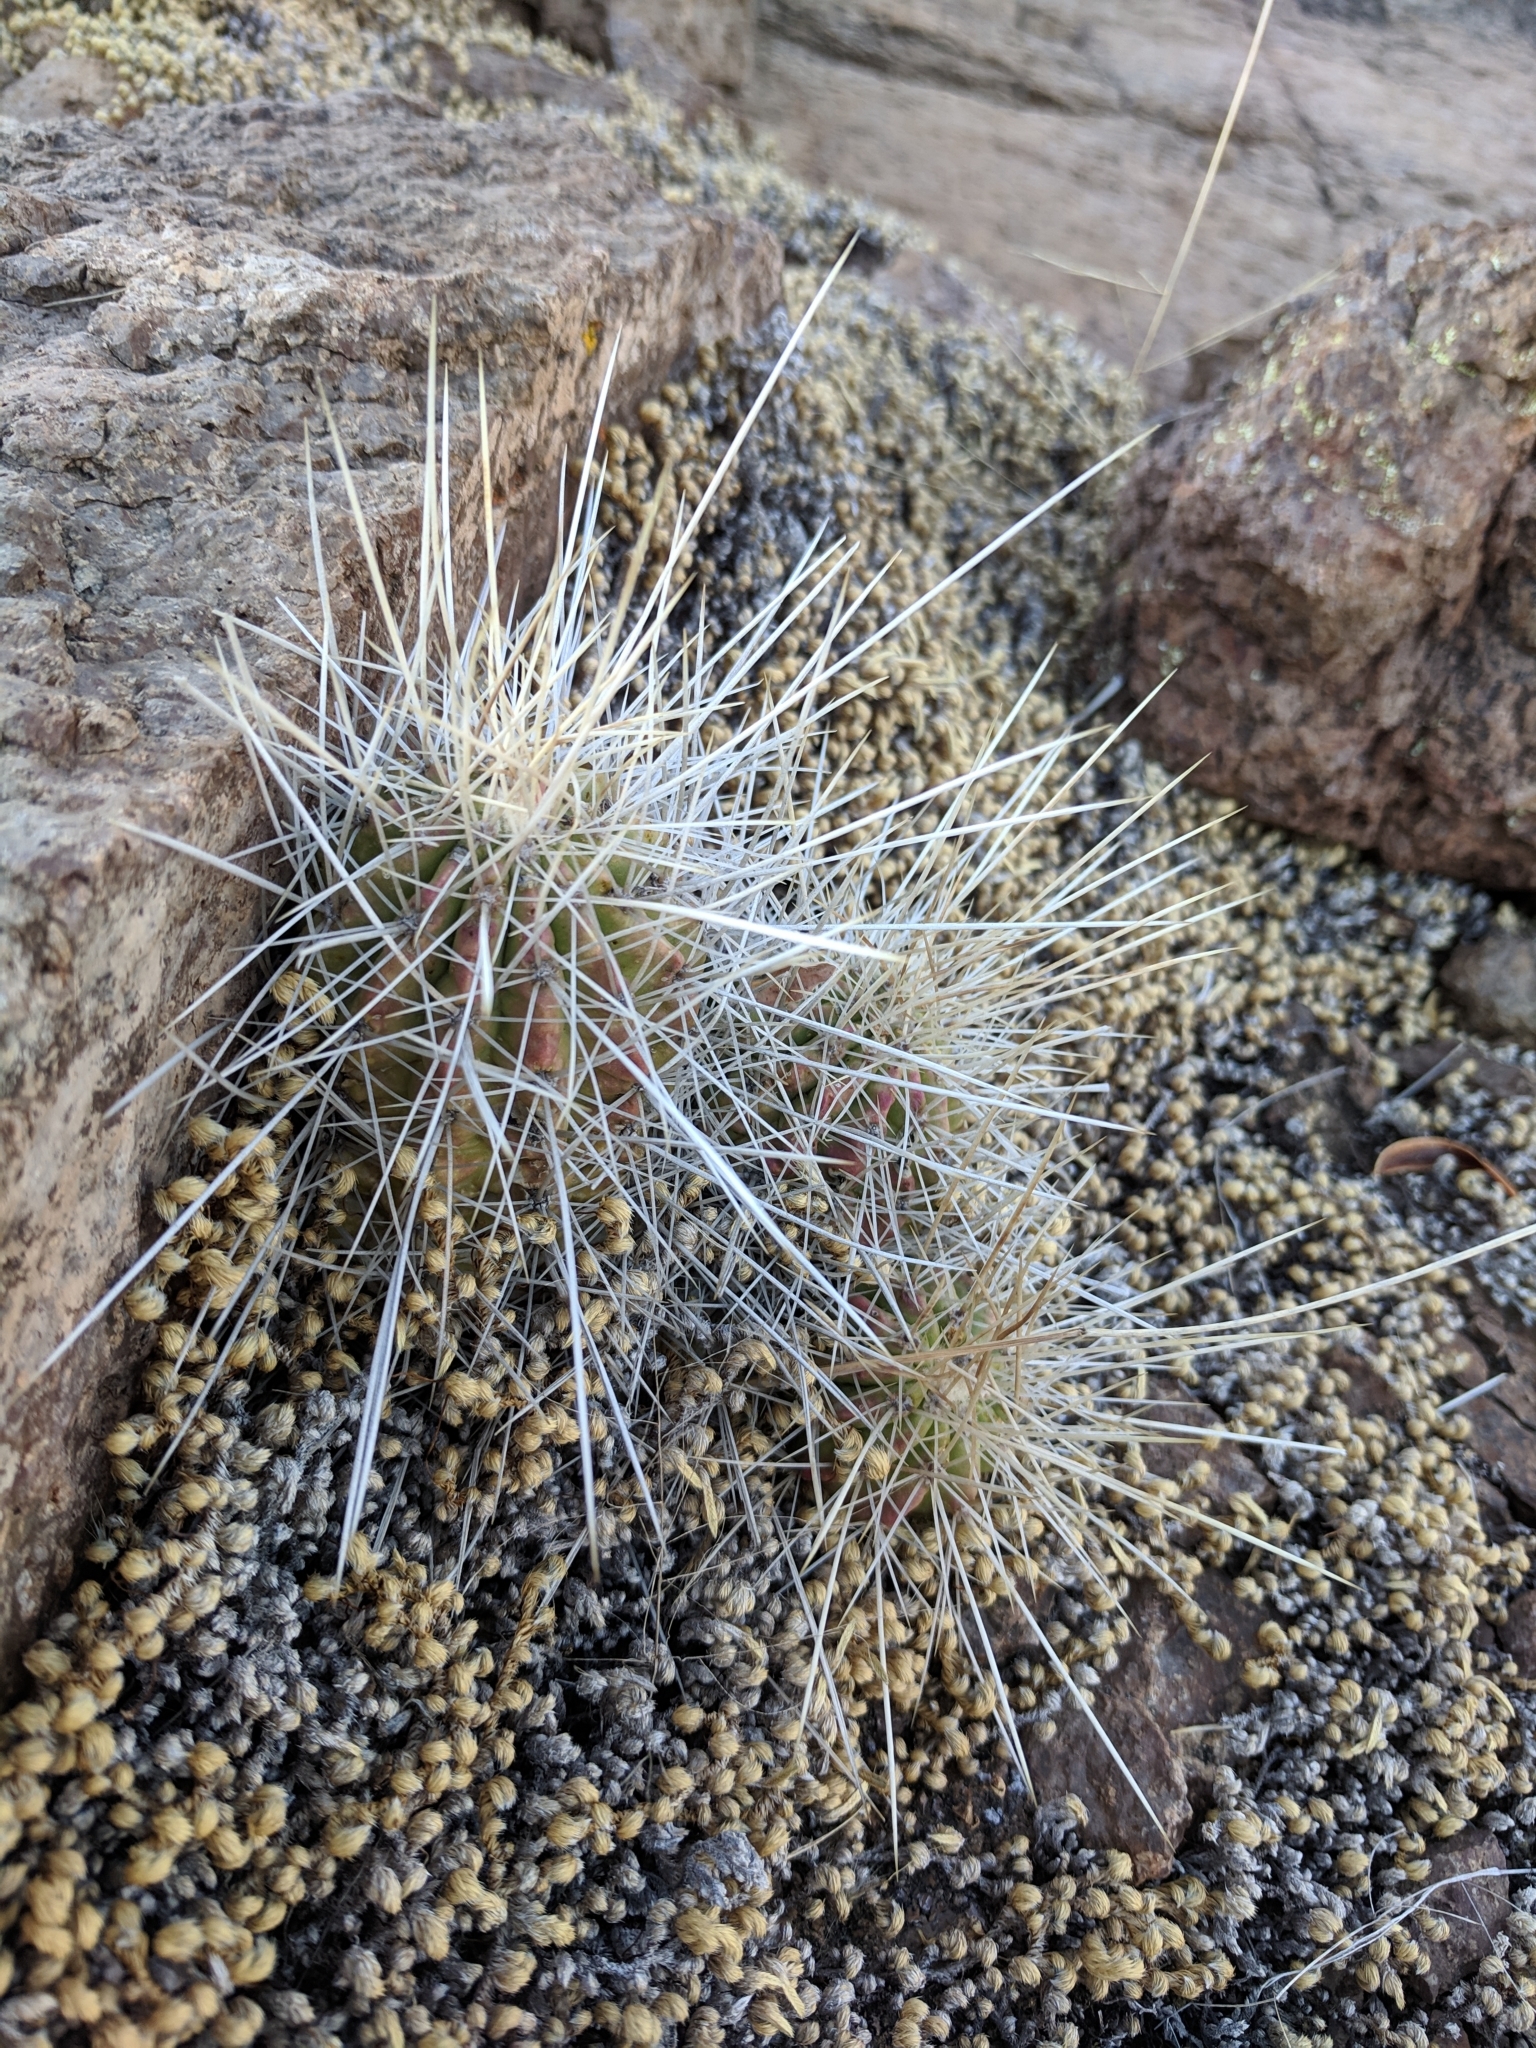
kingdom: Plantae
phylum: Tracheophyta
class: Magnoliopsida
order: Caryophyllales
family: Cactaceae
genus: Echinocereus
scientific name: Echinocereus stramineus
